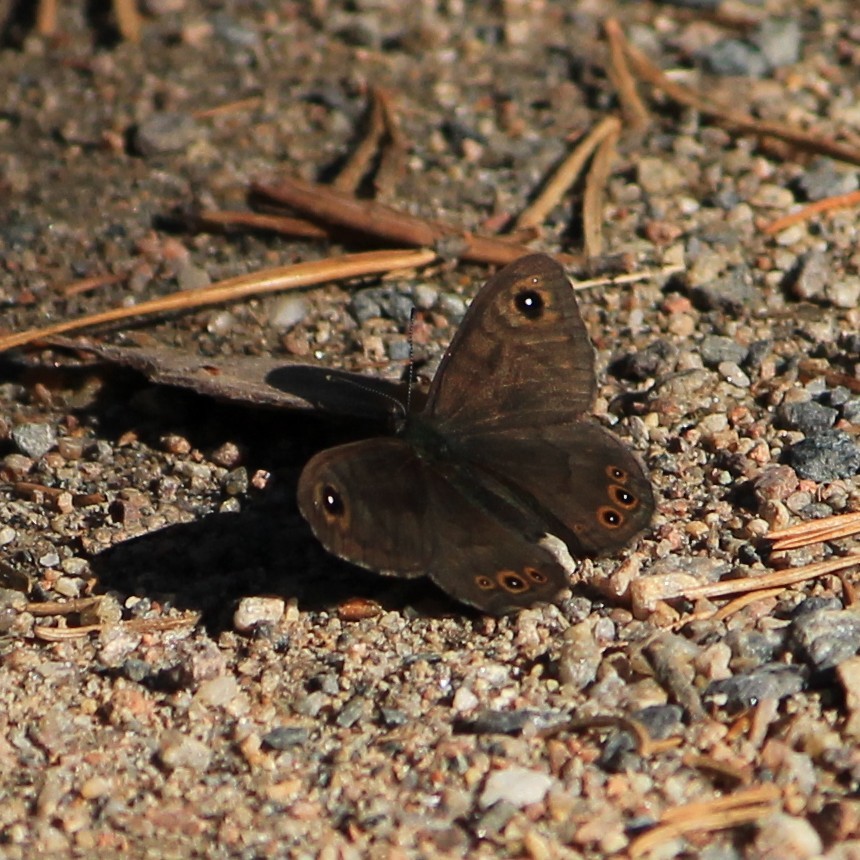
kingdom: Animalia
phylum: Arthropoda
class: Insecta
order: Lepidoptera
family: Nymphalidae
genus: Pararge
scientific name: Pararge petropolitana
